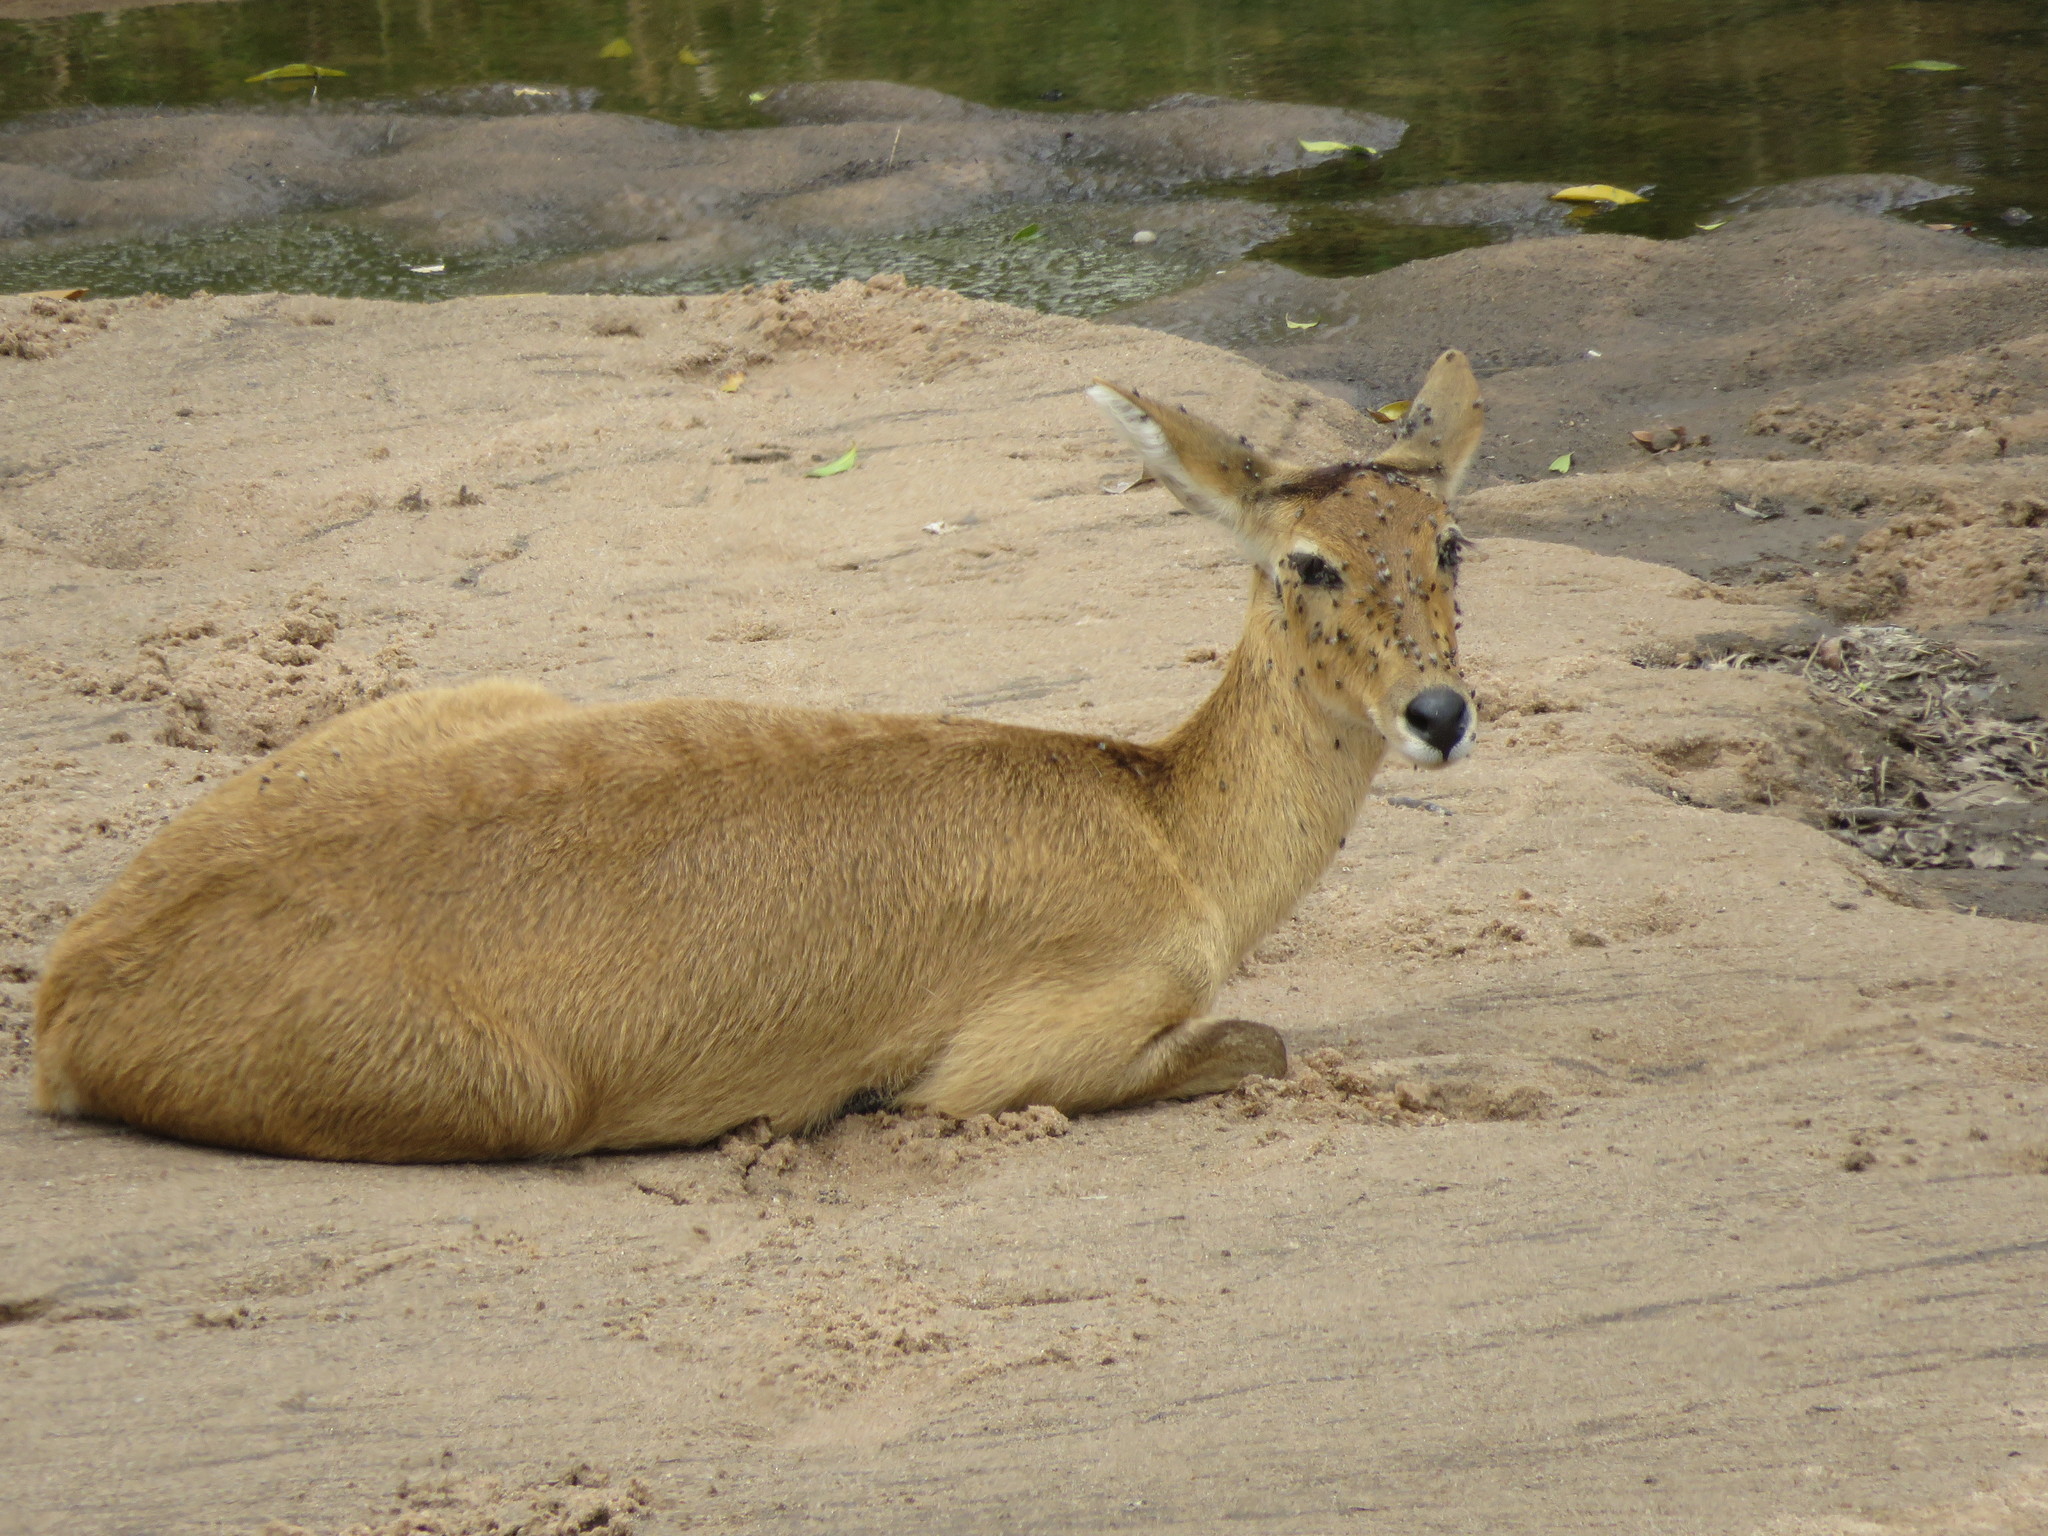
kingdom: Animalia
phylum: Chordata
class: Mammalia
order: Artiodactyla
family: Bovidae
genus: Redunca
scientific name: Redunca redunca
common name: Common reedbuck
